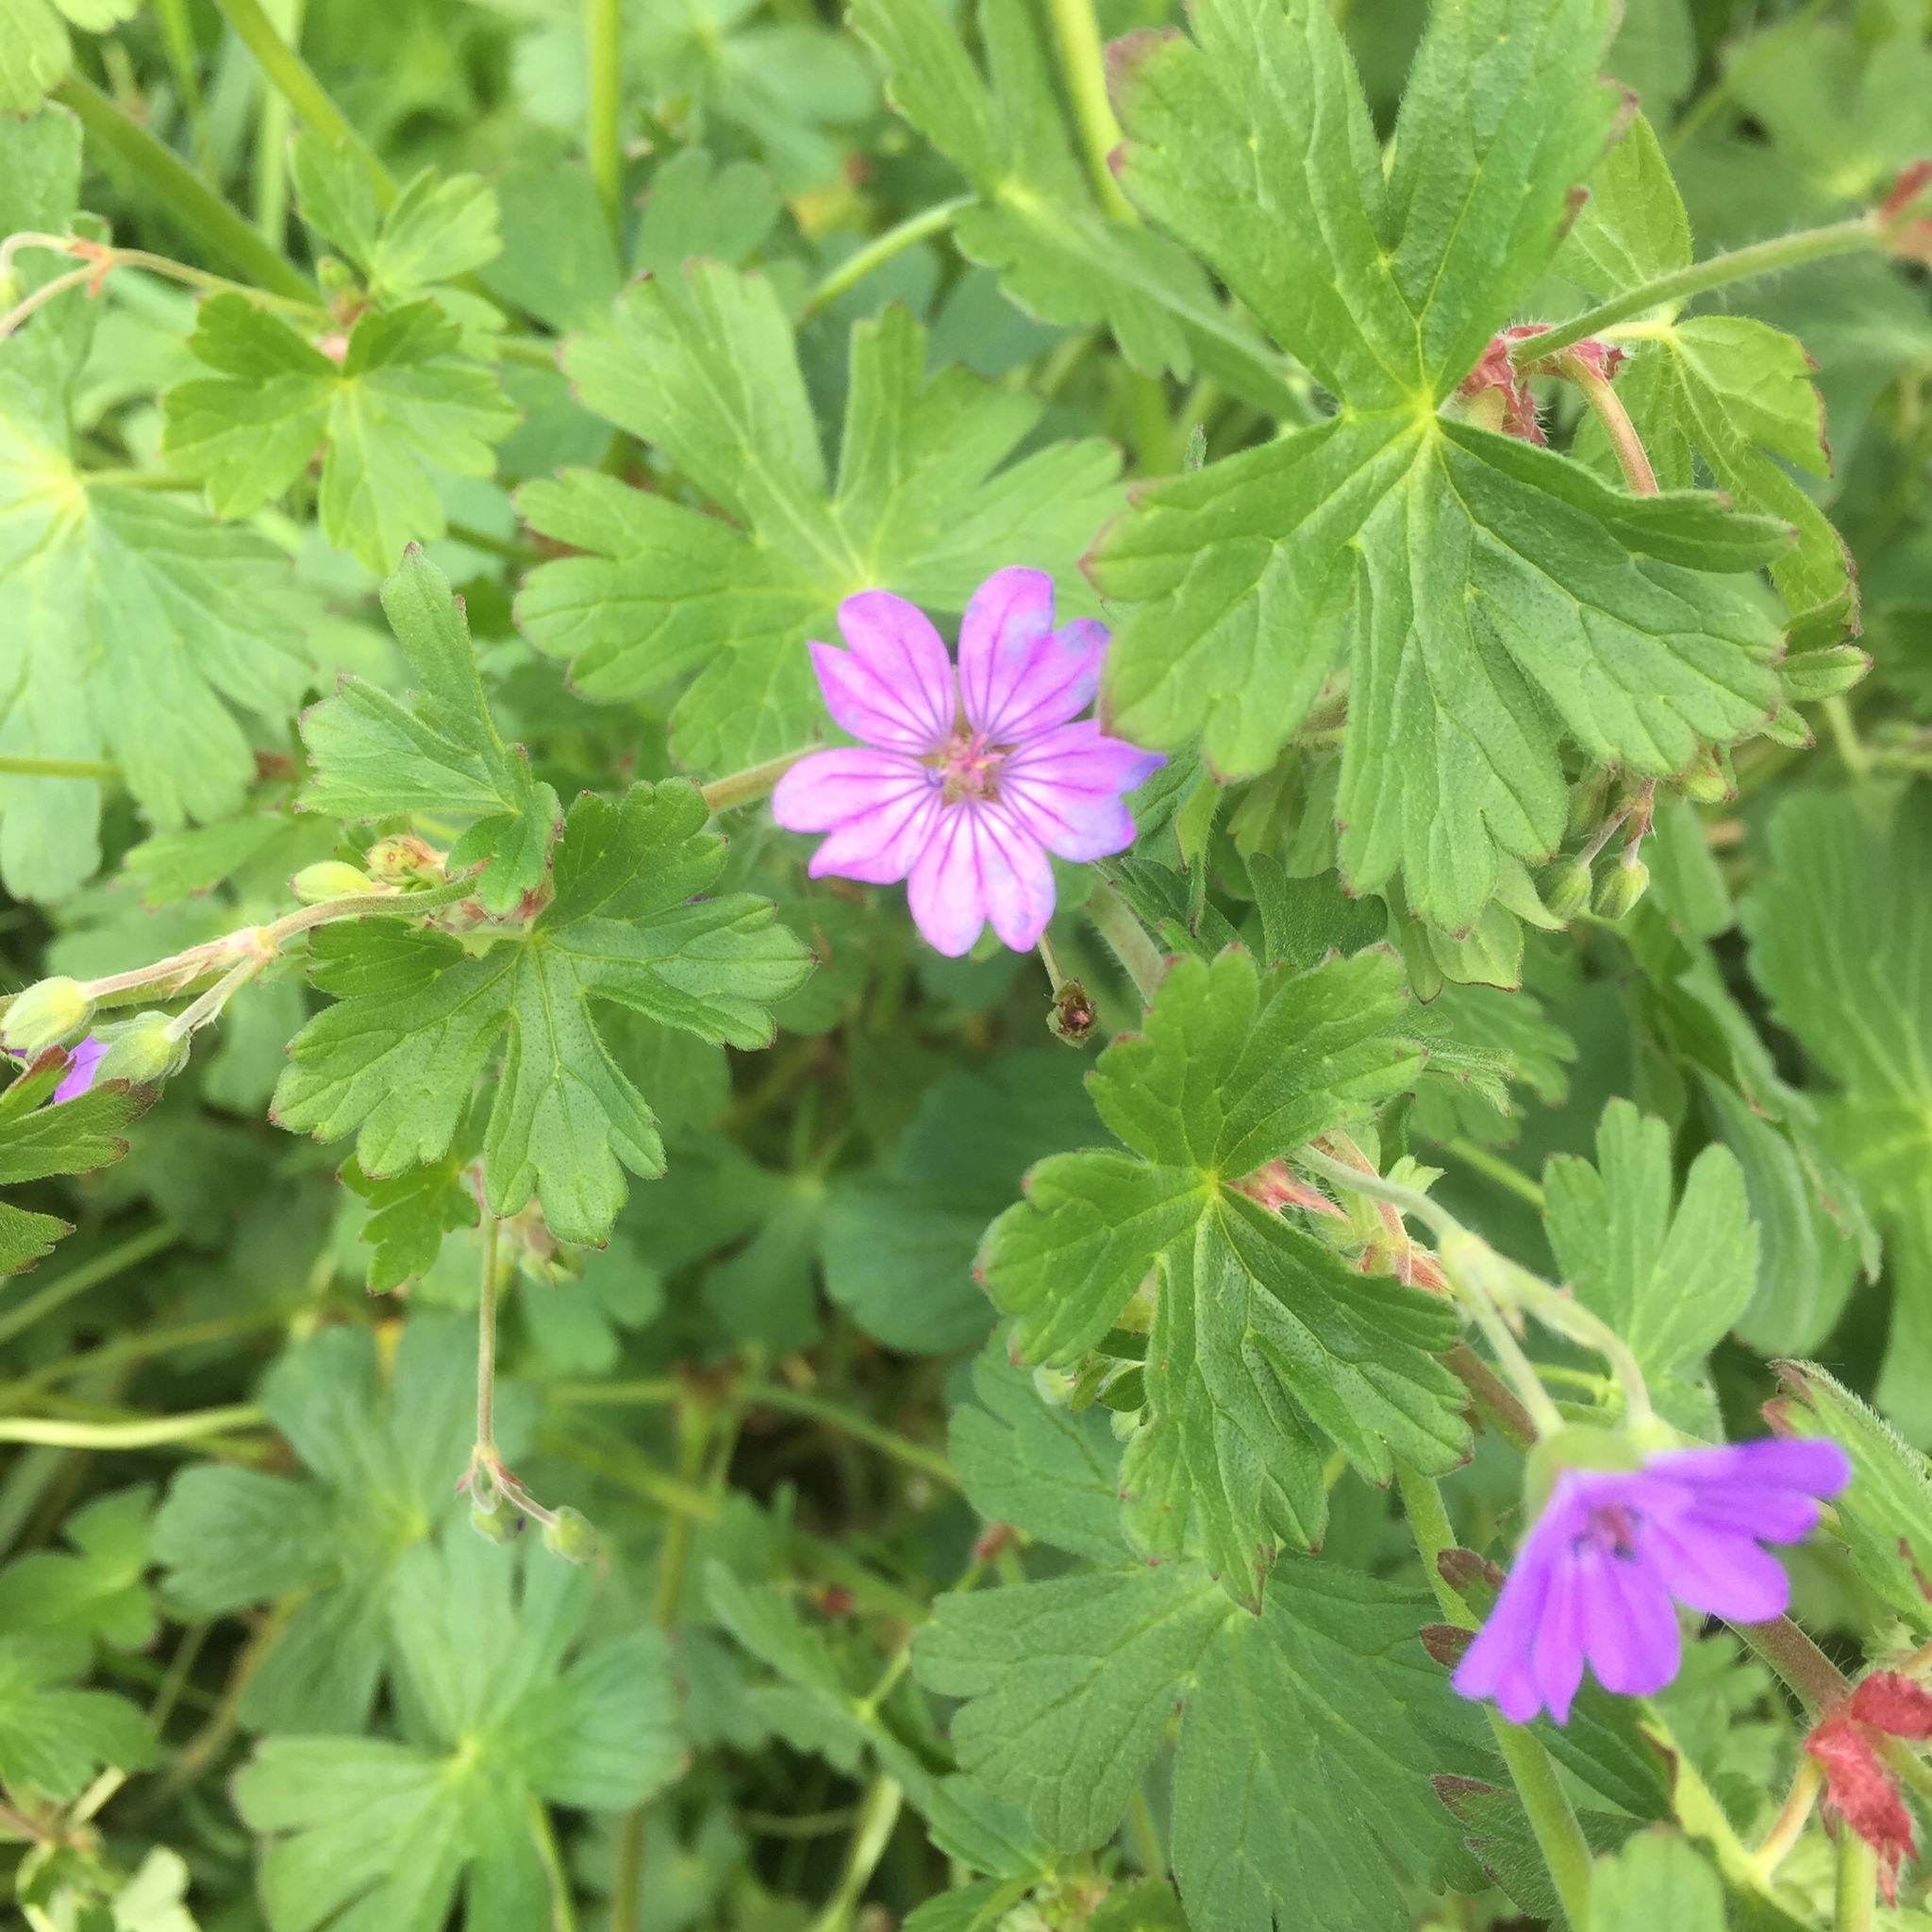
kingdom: Plantae
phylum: Tracheophyta
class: Magnoliopsida
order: Geraniales
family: Geraniaceae
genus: Geranium
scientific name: Geranium pyrenaicum
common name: Hedgerow crane's-bill
